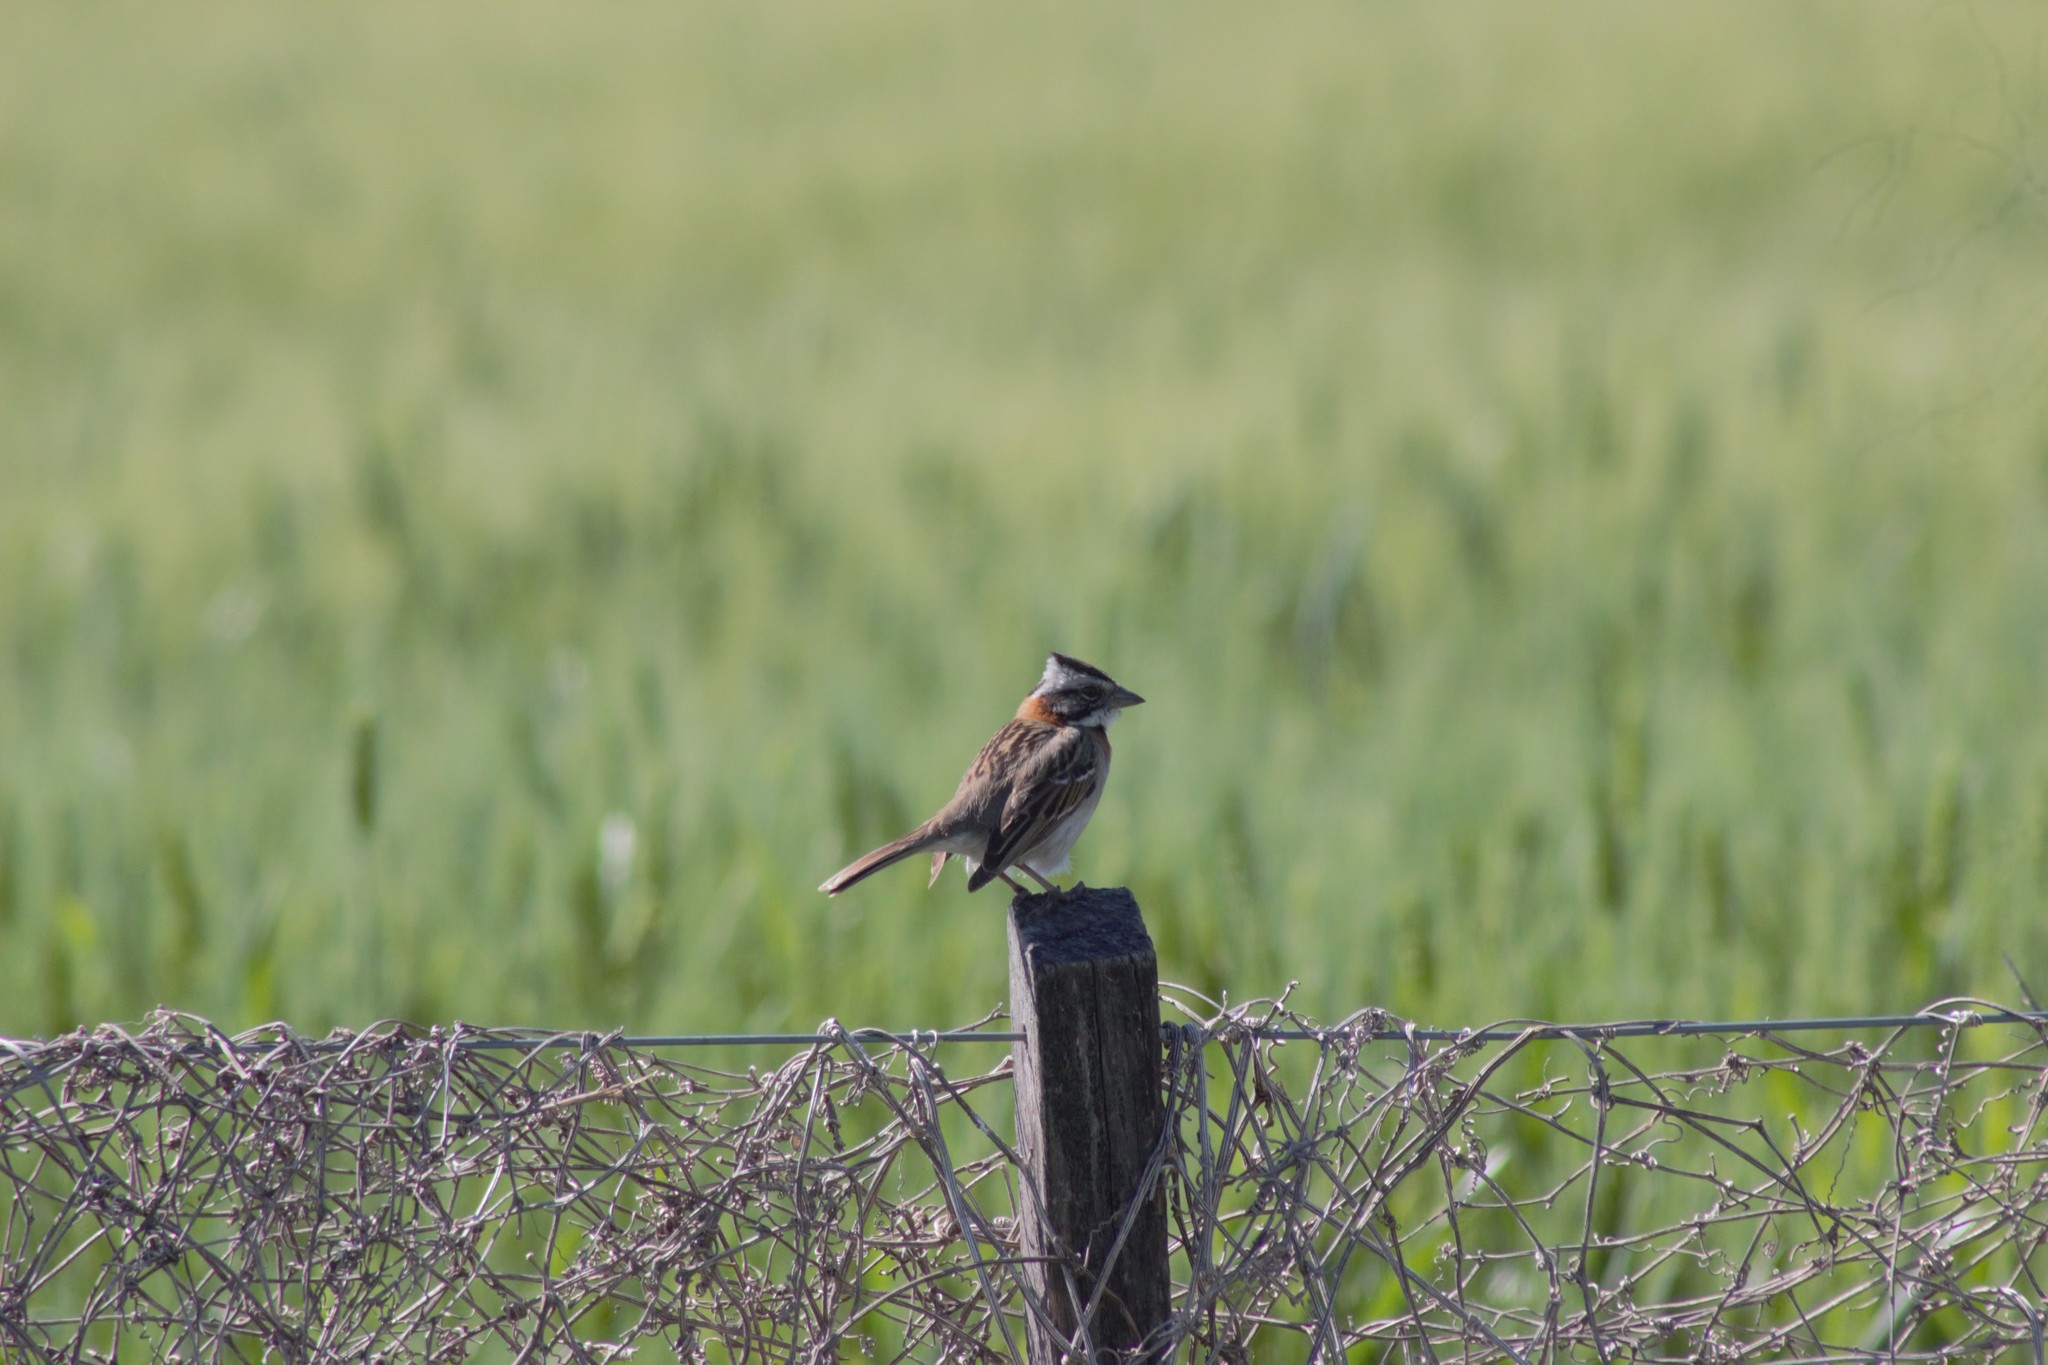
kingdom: Animalia
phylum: Chordata
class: Aves
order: Passeriformes
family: Passerellidae
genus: Zonotrichia
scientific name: Zonotrichia capensis
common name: Rufous-collared sparrow
